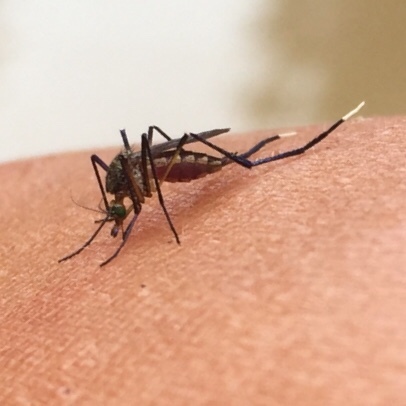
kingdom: Animalia
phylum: Arthropoda
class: Insecta
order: Diptera
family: Culicidae
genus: Psorophora
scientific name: Psorophora ferox
